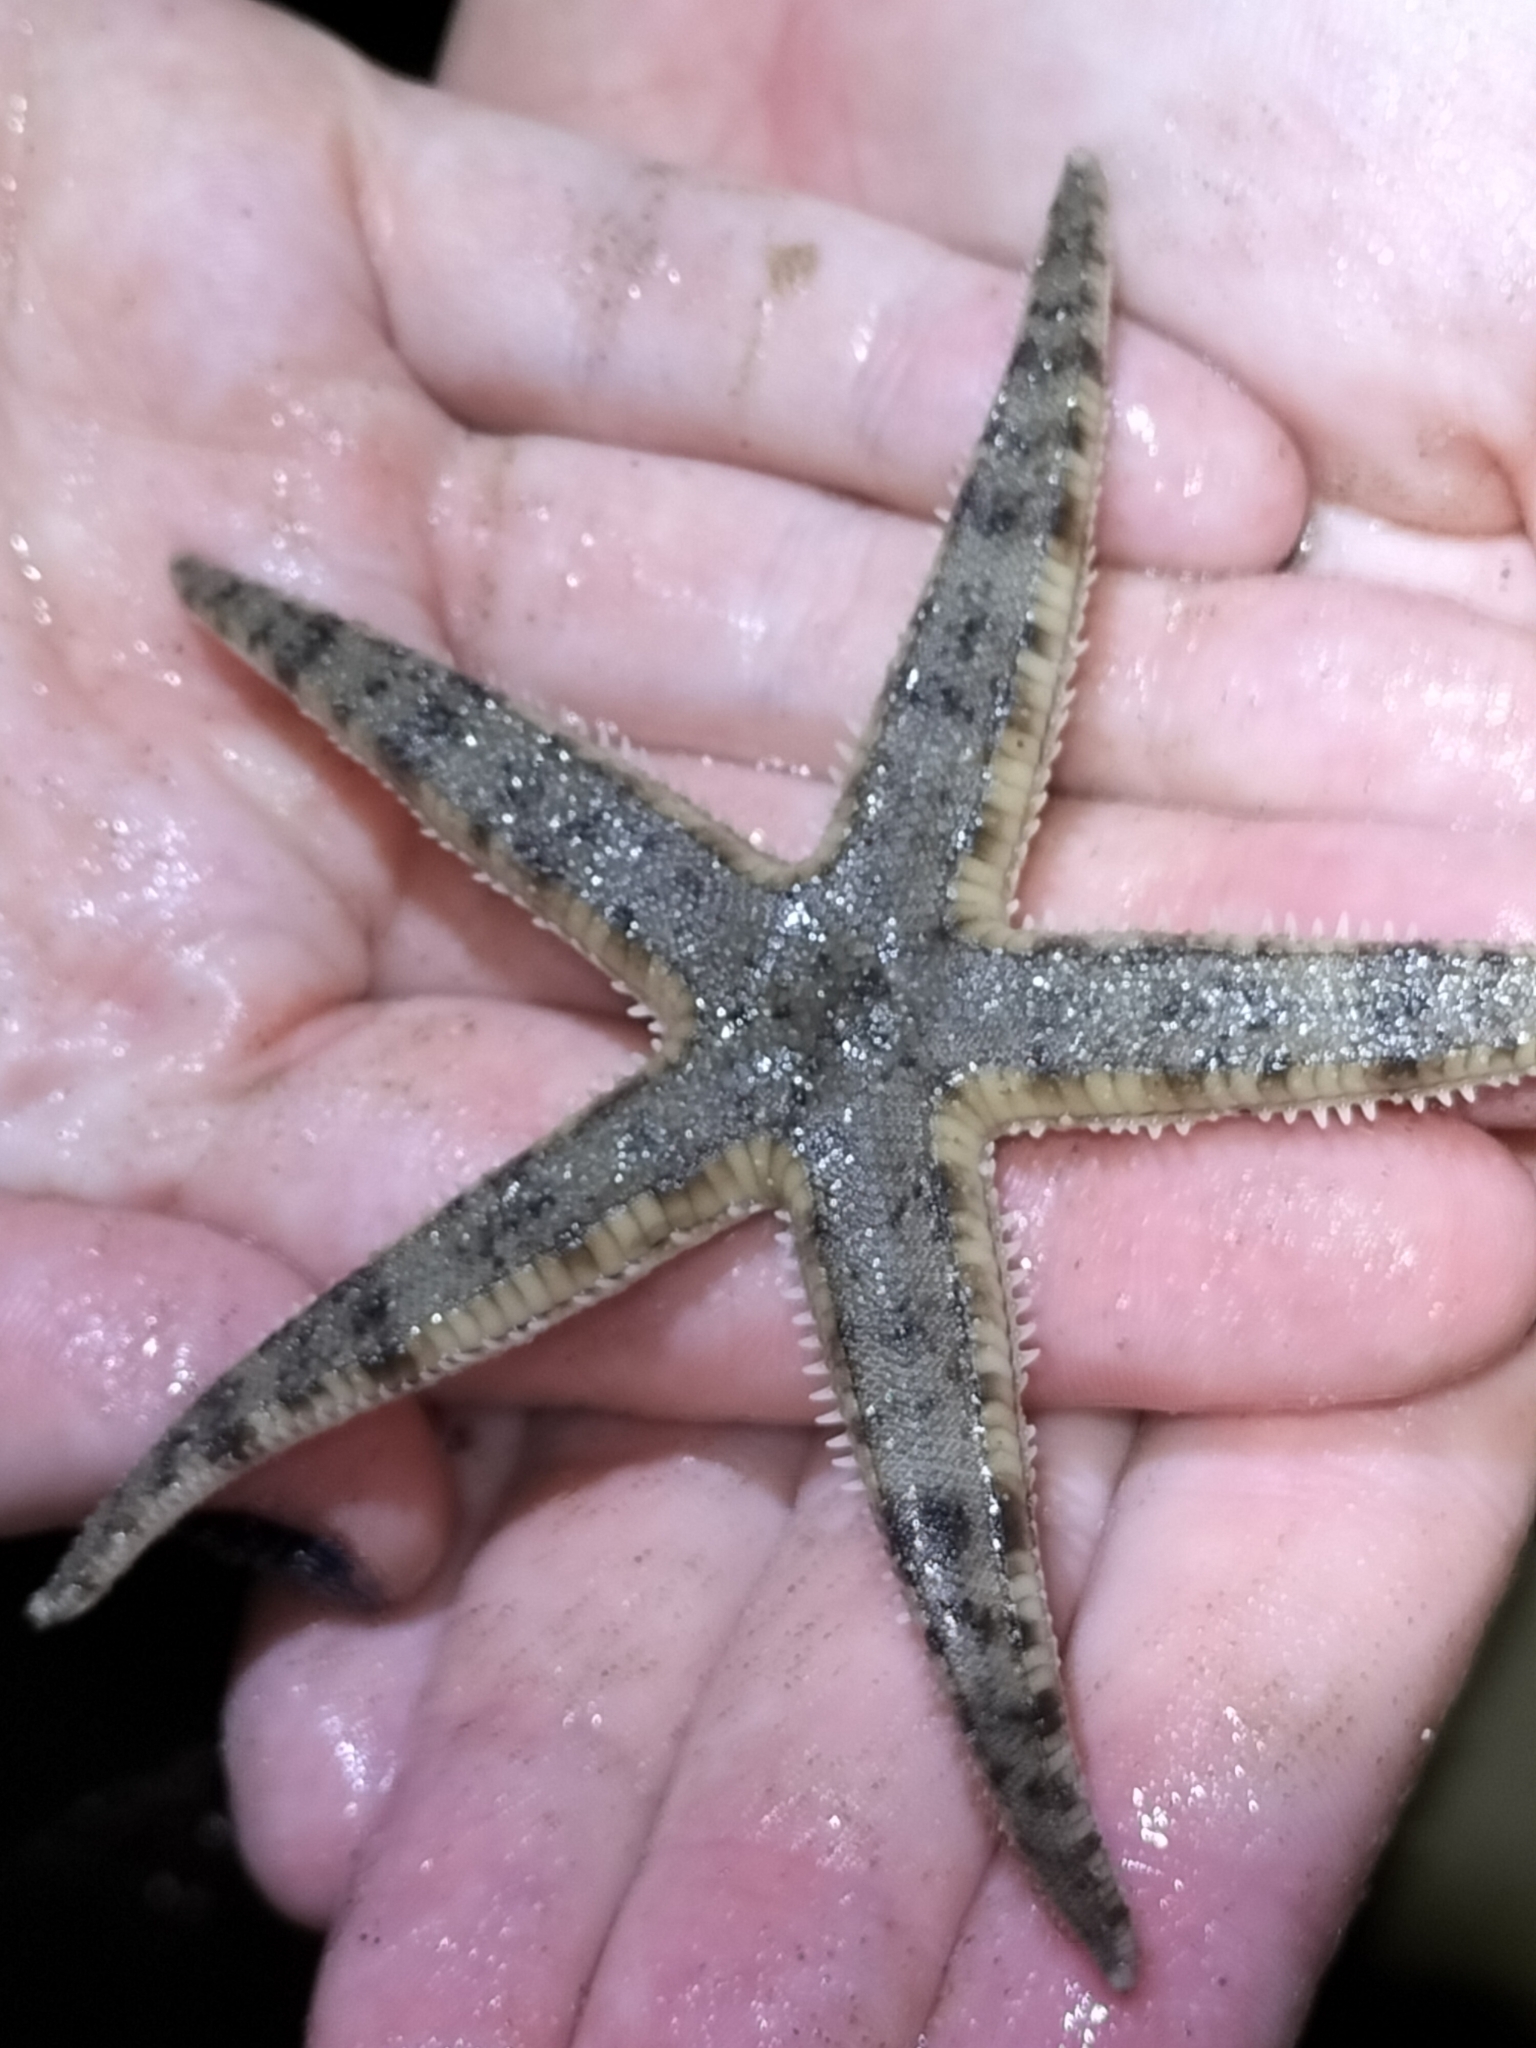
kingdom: Animalia
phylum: Echinodermata
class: Asteroidea
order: Valvatida
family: Archasteridae
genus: Archaster
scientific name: Archaster typicus
